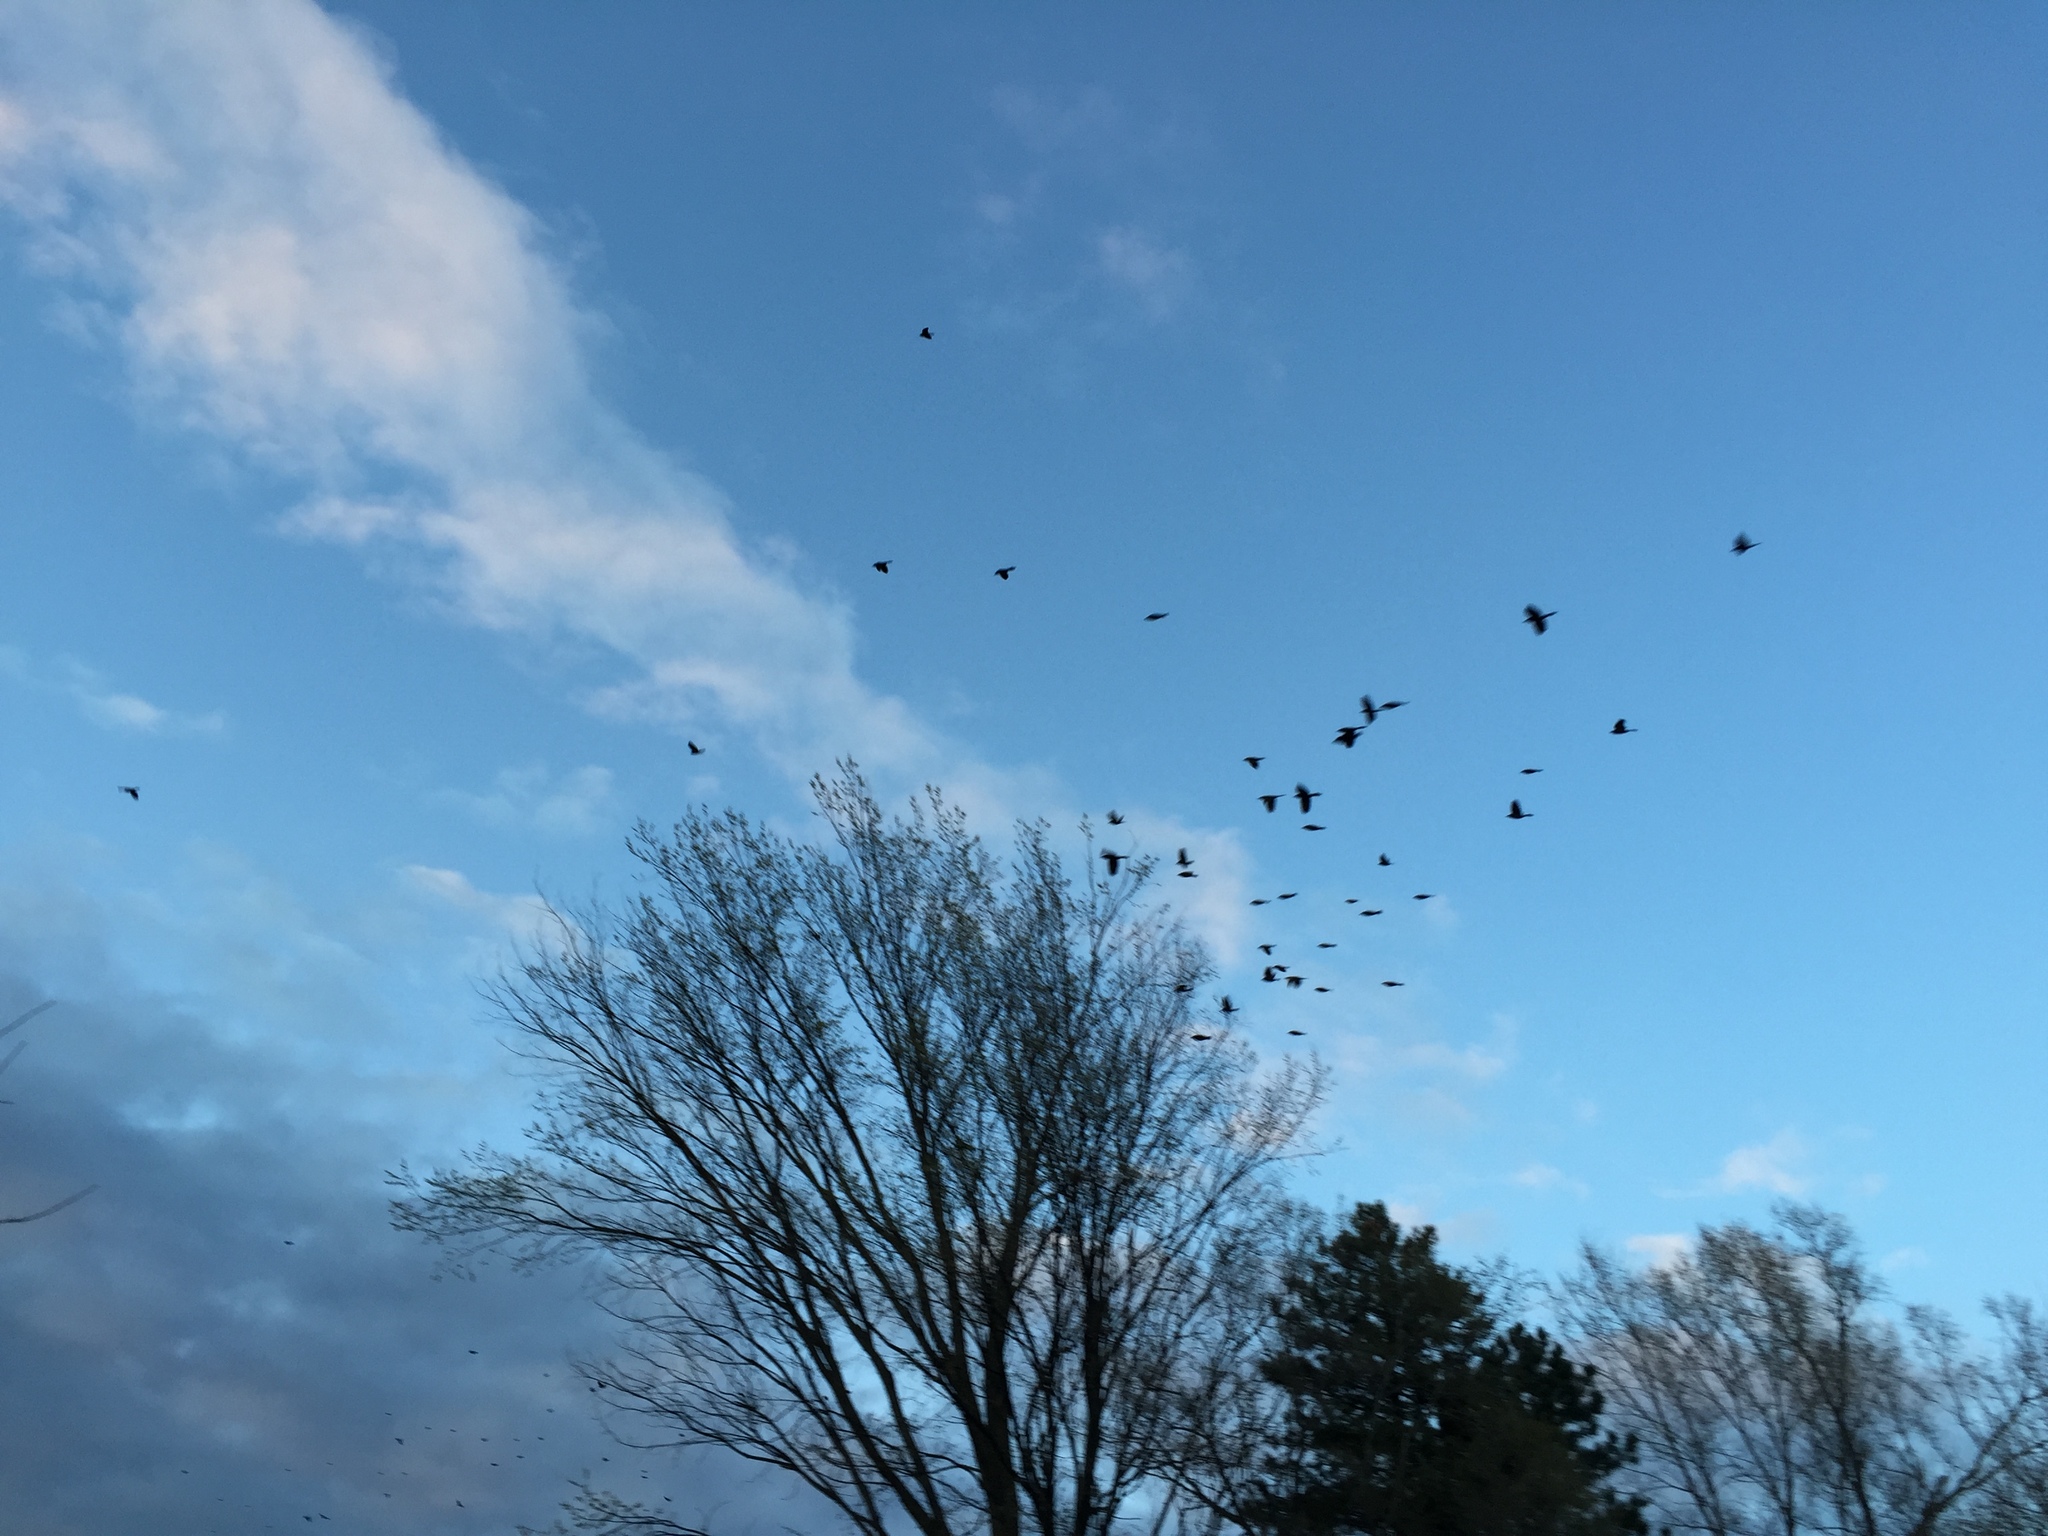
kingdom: Animalia
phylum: Chordata
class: Aves
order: Passeriformes
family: Icteridae
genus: Quiscalus
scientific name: Quiscalus quiscula
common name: Common grackle
